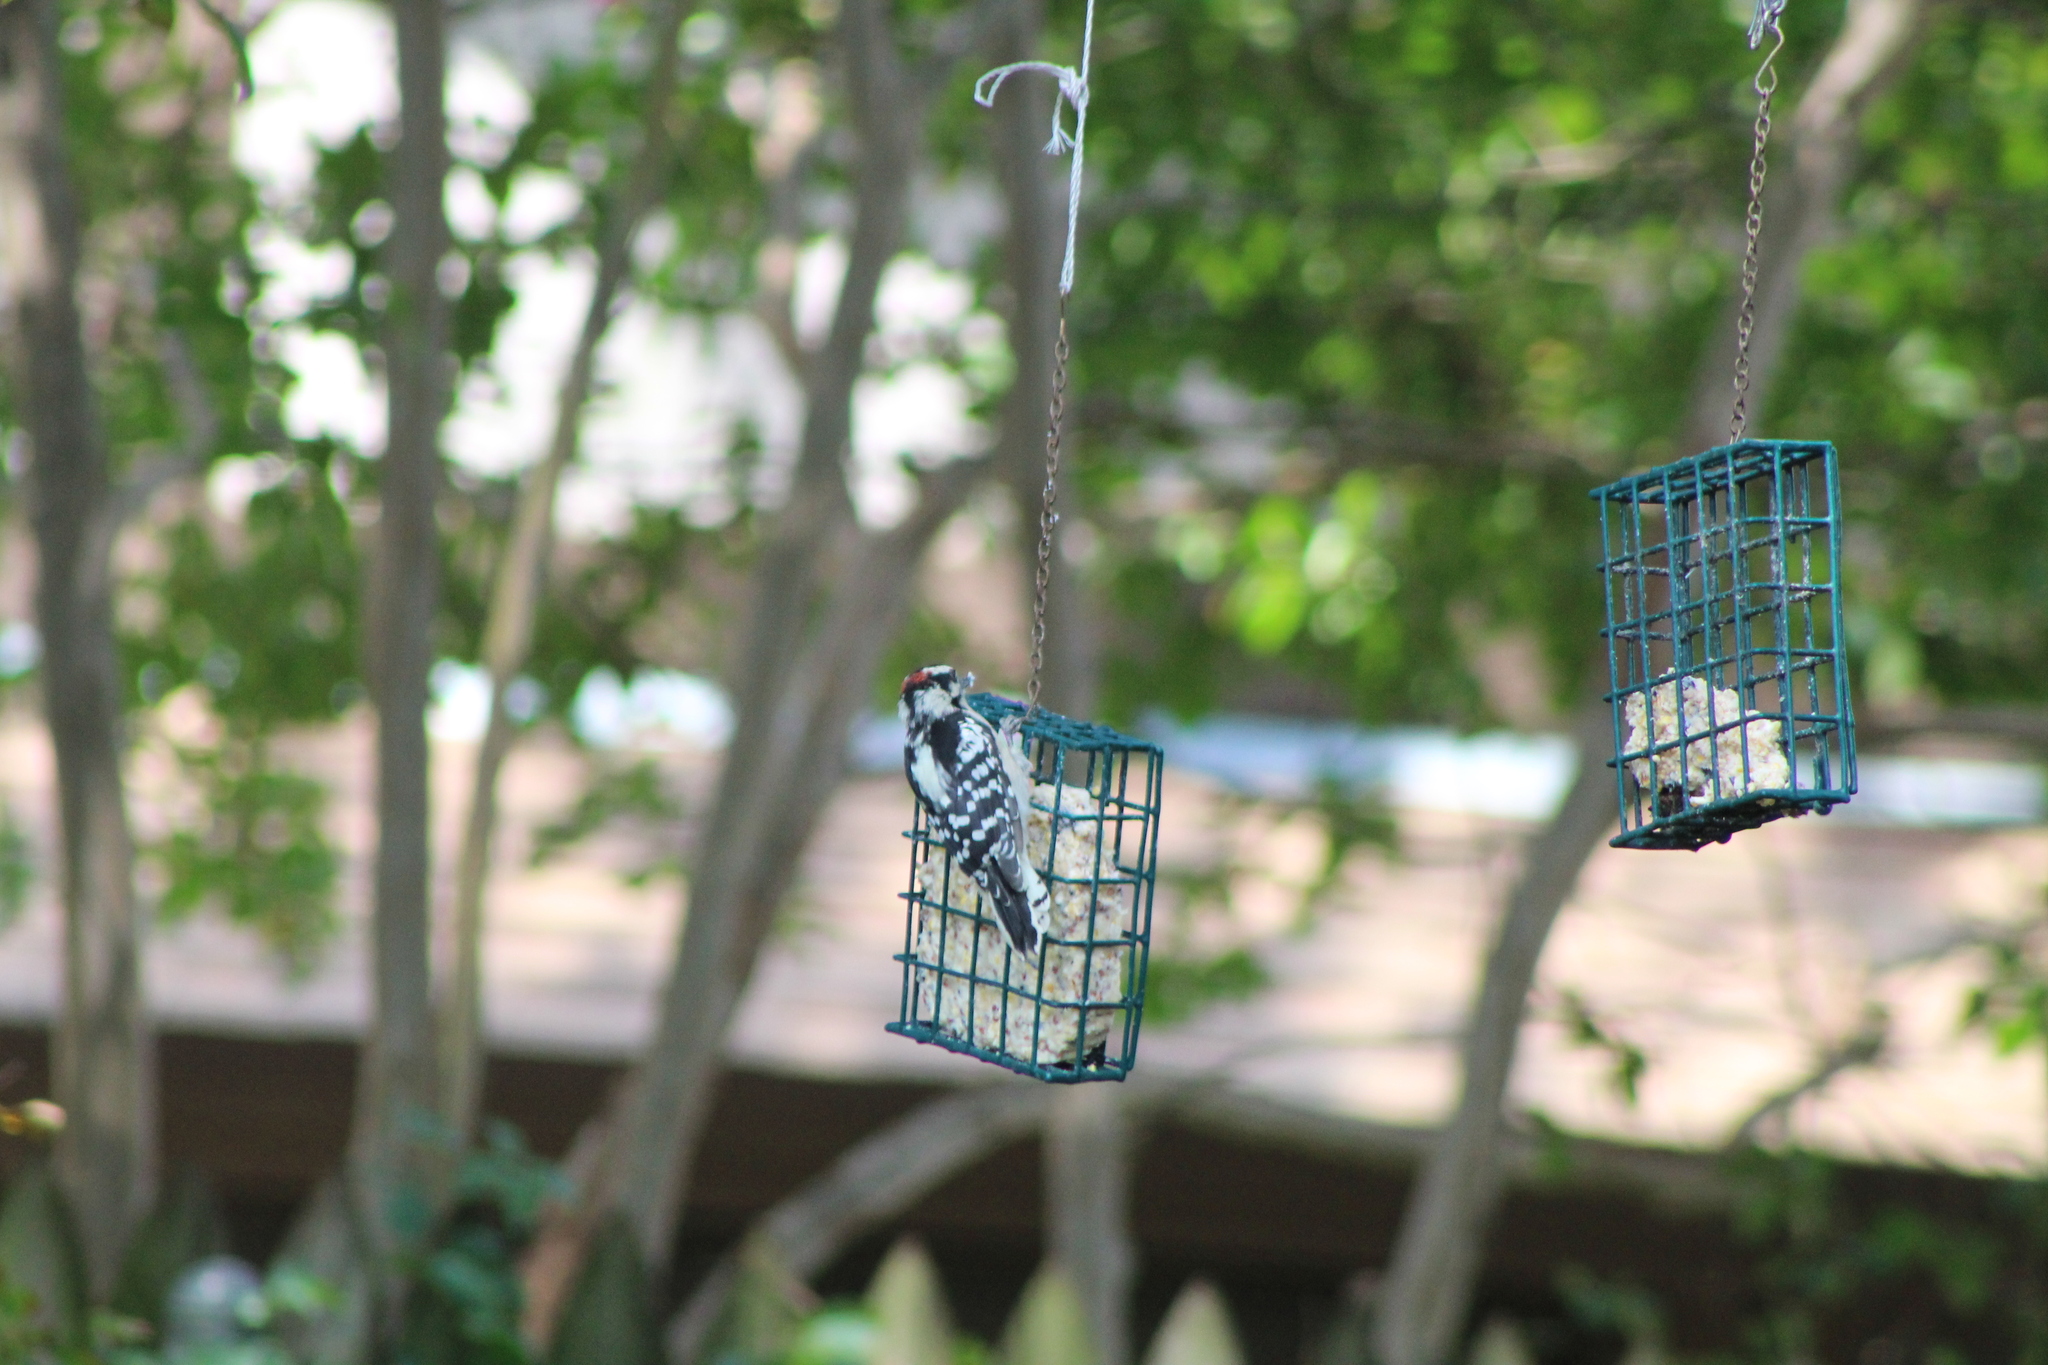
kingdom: Animalia
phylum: Chordata
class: Aves
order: Piciformes
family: Picidae
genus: Dryobates
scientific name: Dryobates pubescens
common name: Downy woodpecker
